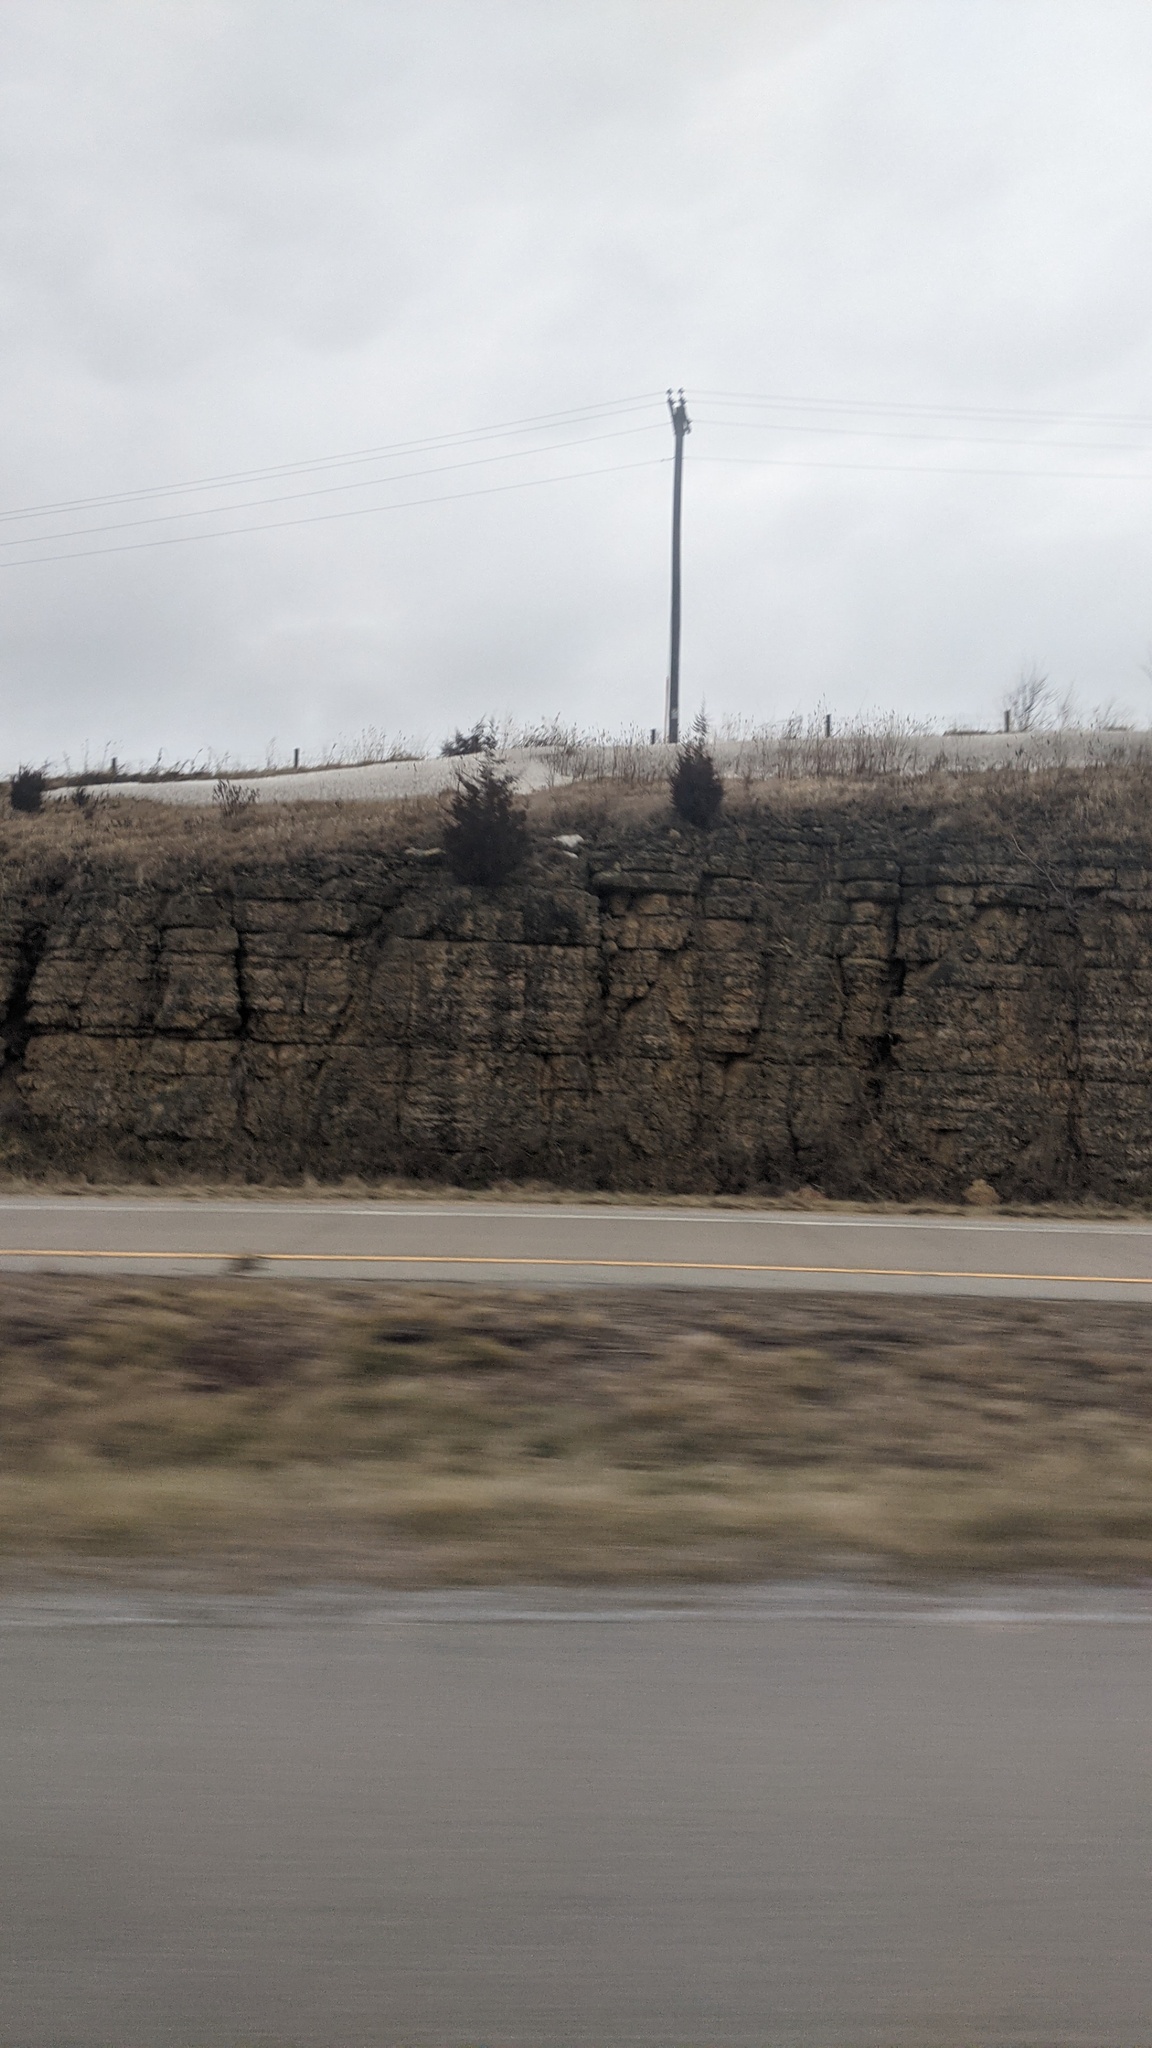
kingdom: Plantae
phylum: Tracheophyta
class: Pinopsida
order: Pinales
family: Cupressaceae
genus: Juniperus
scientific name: Juniperus virginiana
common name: Red juniper
